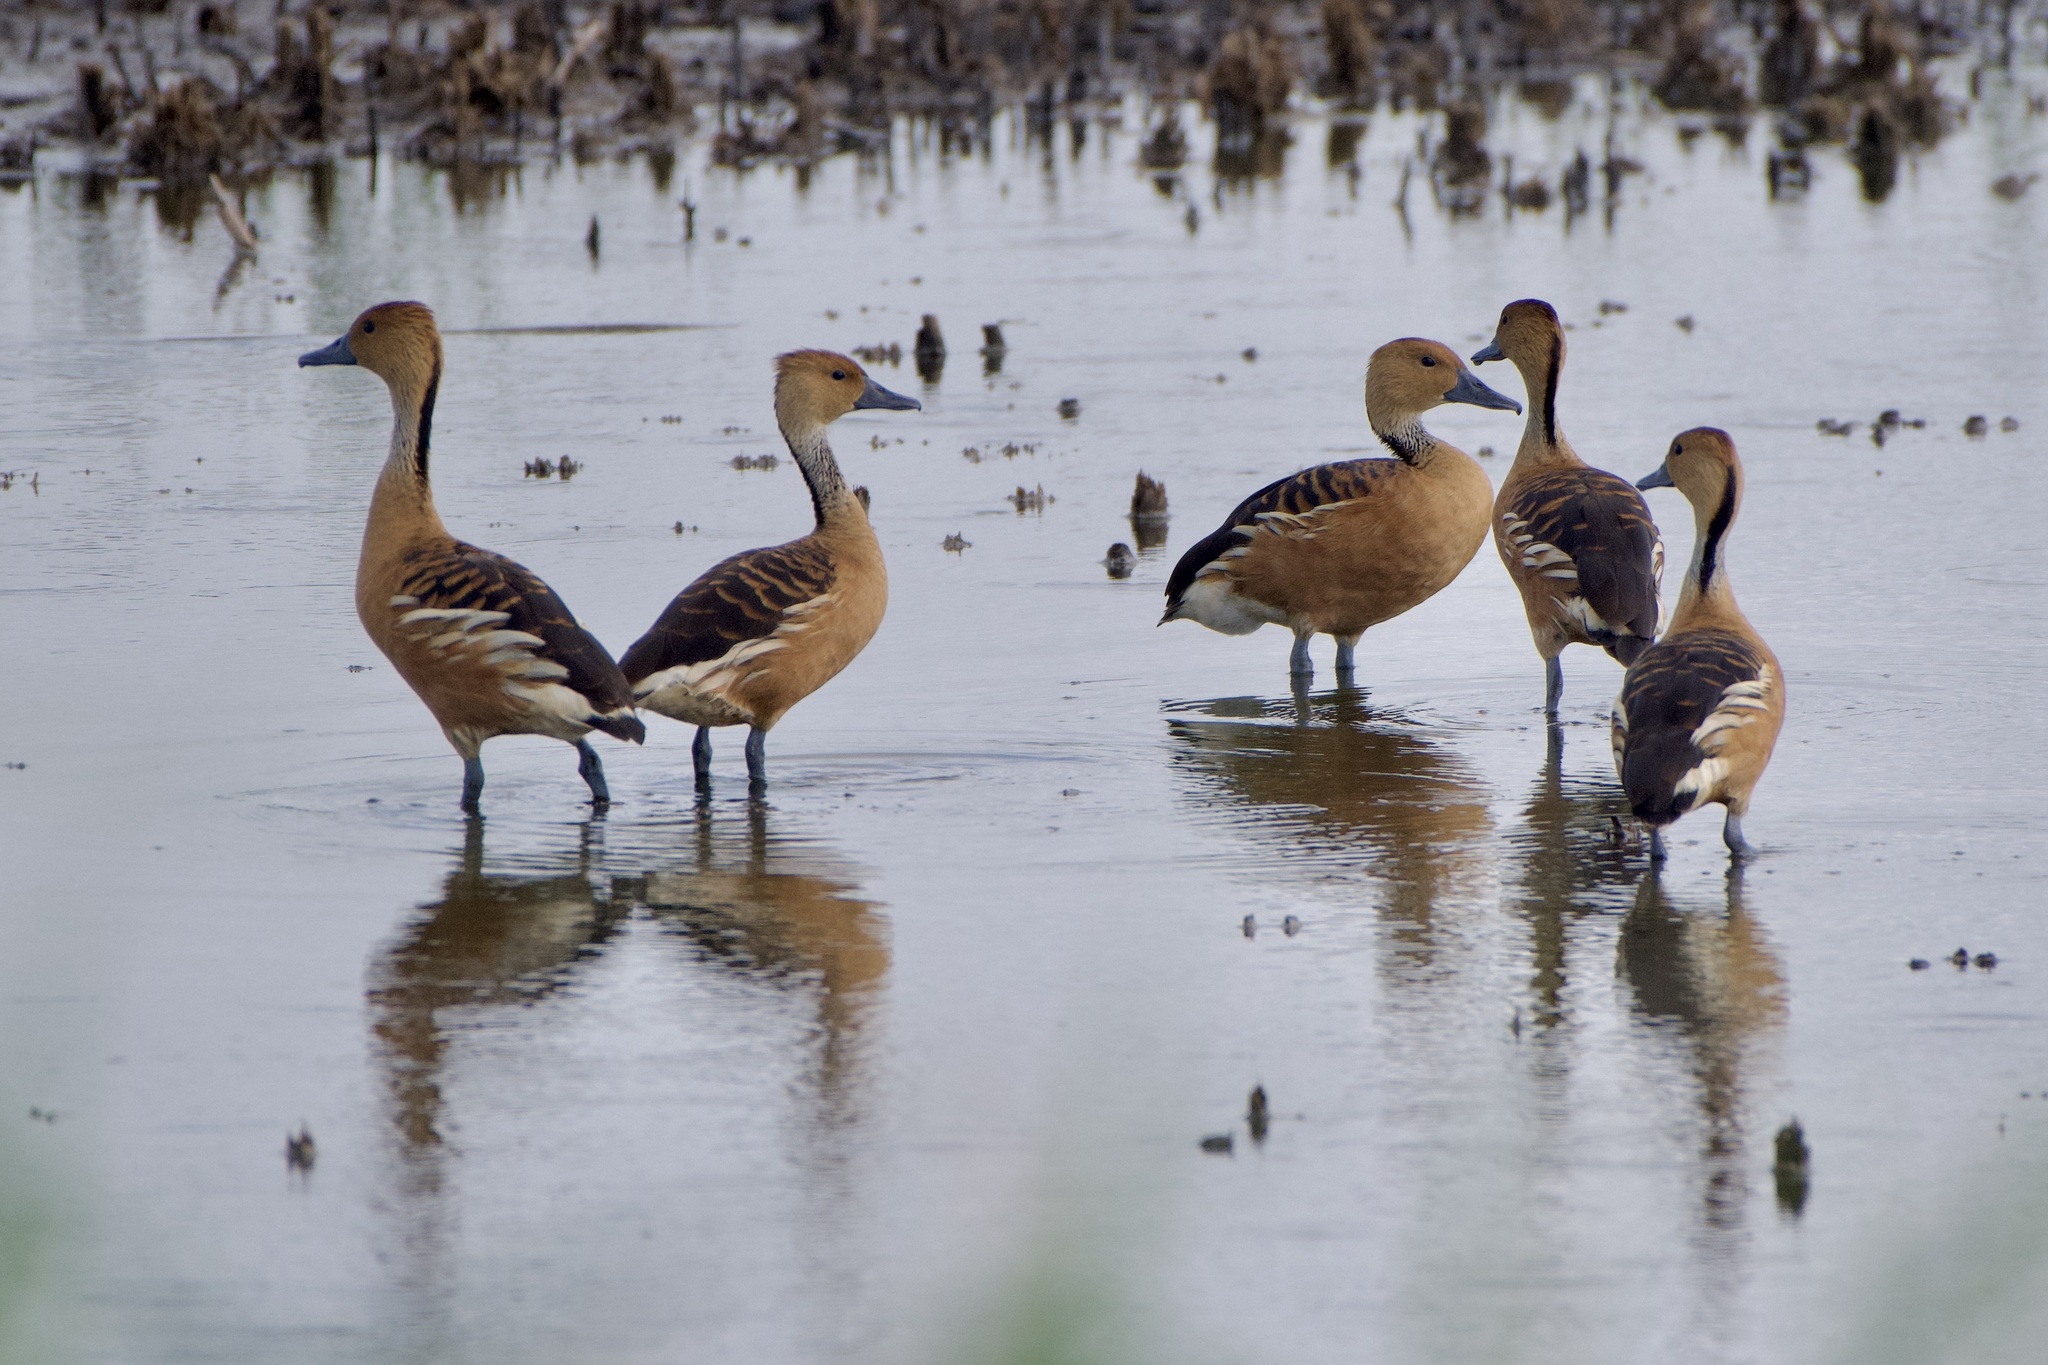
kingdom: Animalia
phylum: Chordata
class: Aves
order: Anseriformes
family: Anatidae
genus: Dendrocygna
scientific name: Dendrocygna bicolor
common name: Fulvous whistling duck
